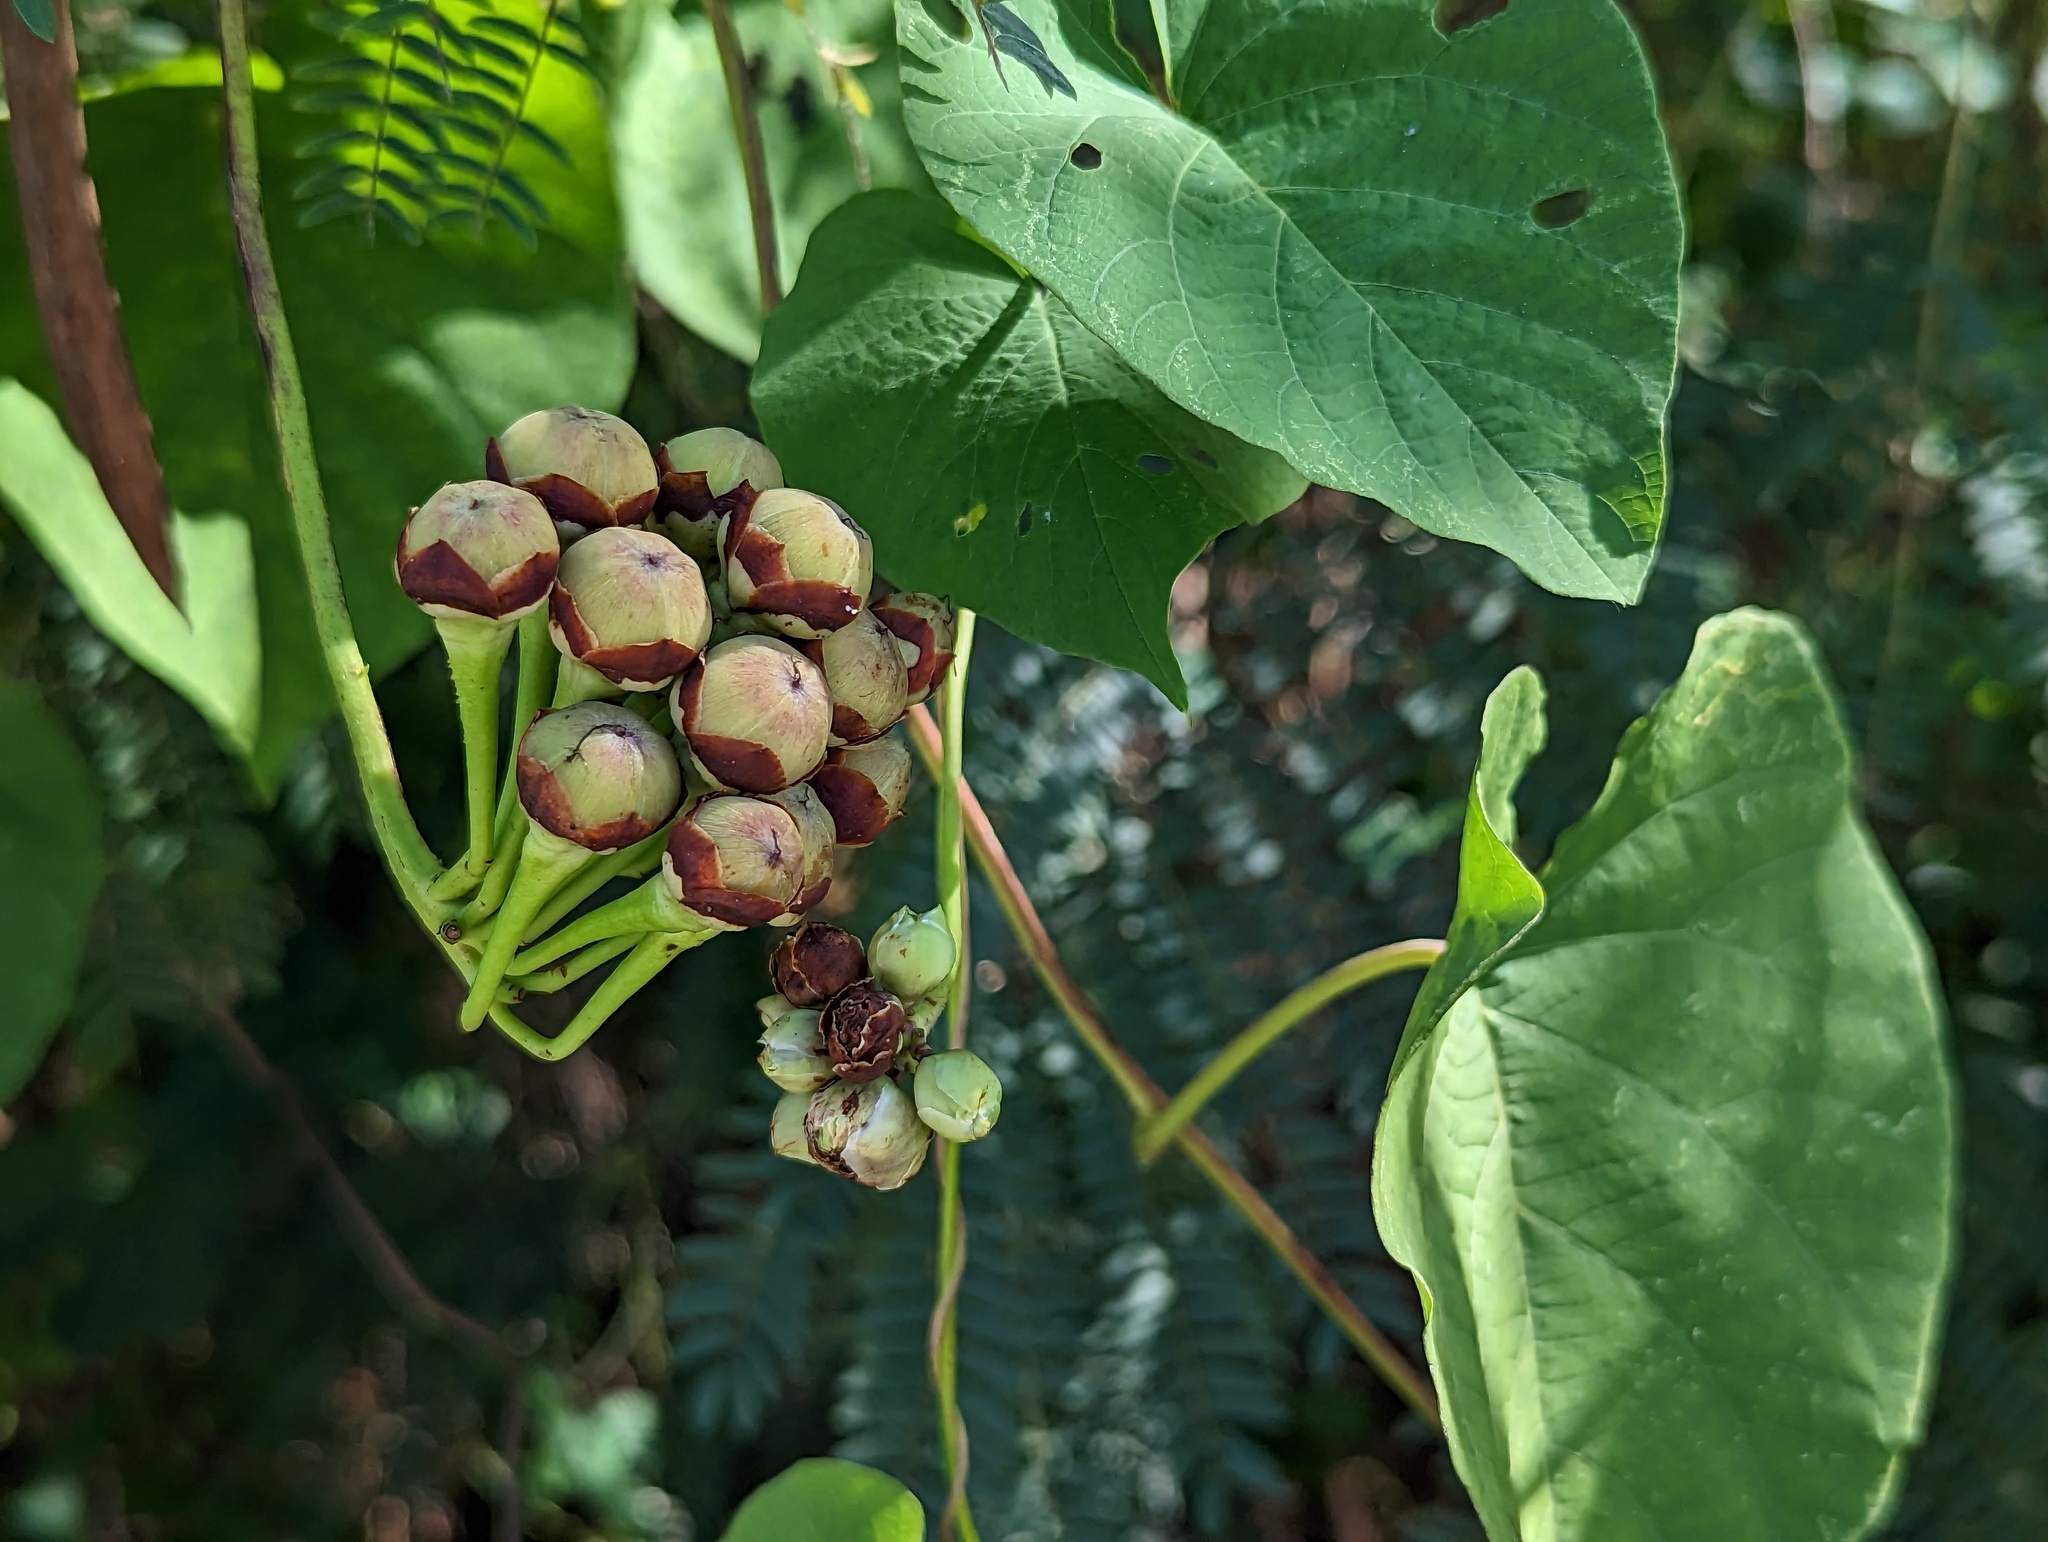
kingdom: Plantae
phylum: Tracheophyta
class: Magnoliopsida
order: Solanales
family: Convolvulaceae
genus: Camonea
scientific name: Camonea umbellata
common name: Hogvine
